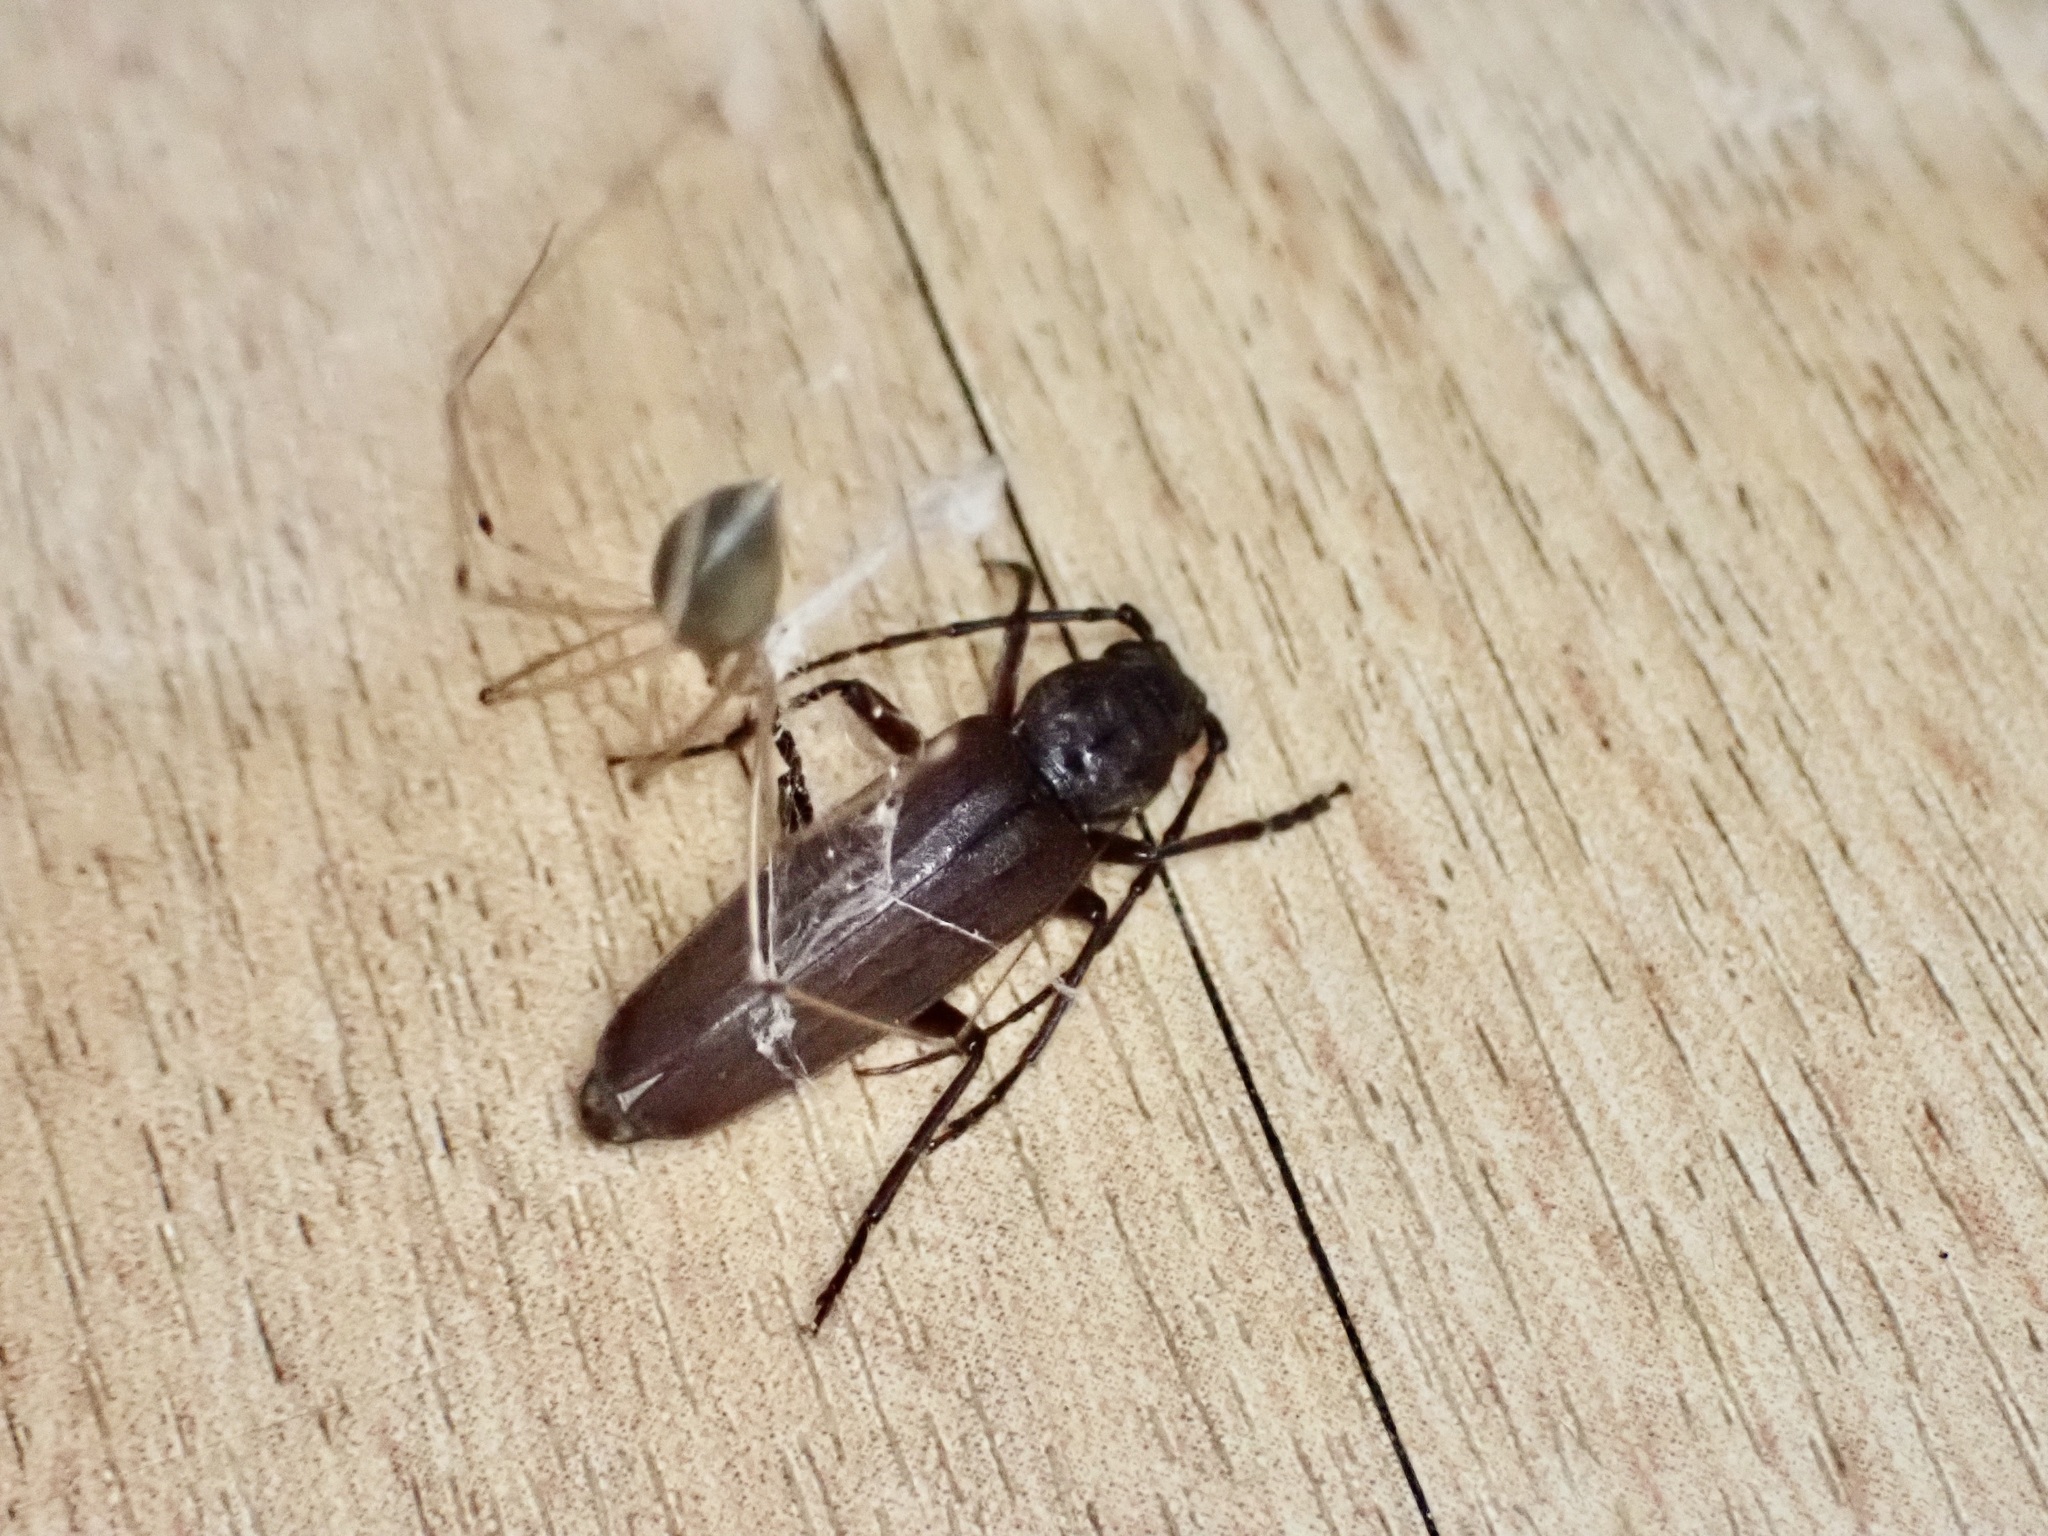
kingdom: Animalia
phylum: Arthropoda
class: Insecta
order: Coleoptera
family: Cerambycidae
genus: Arhopalus
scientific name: Arhopalus ferus
